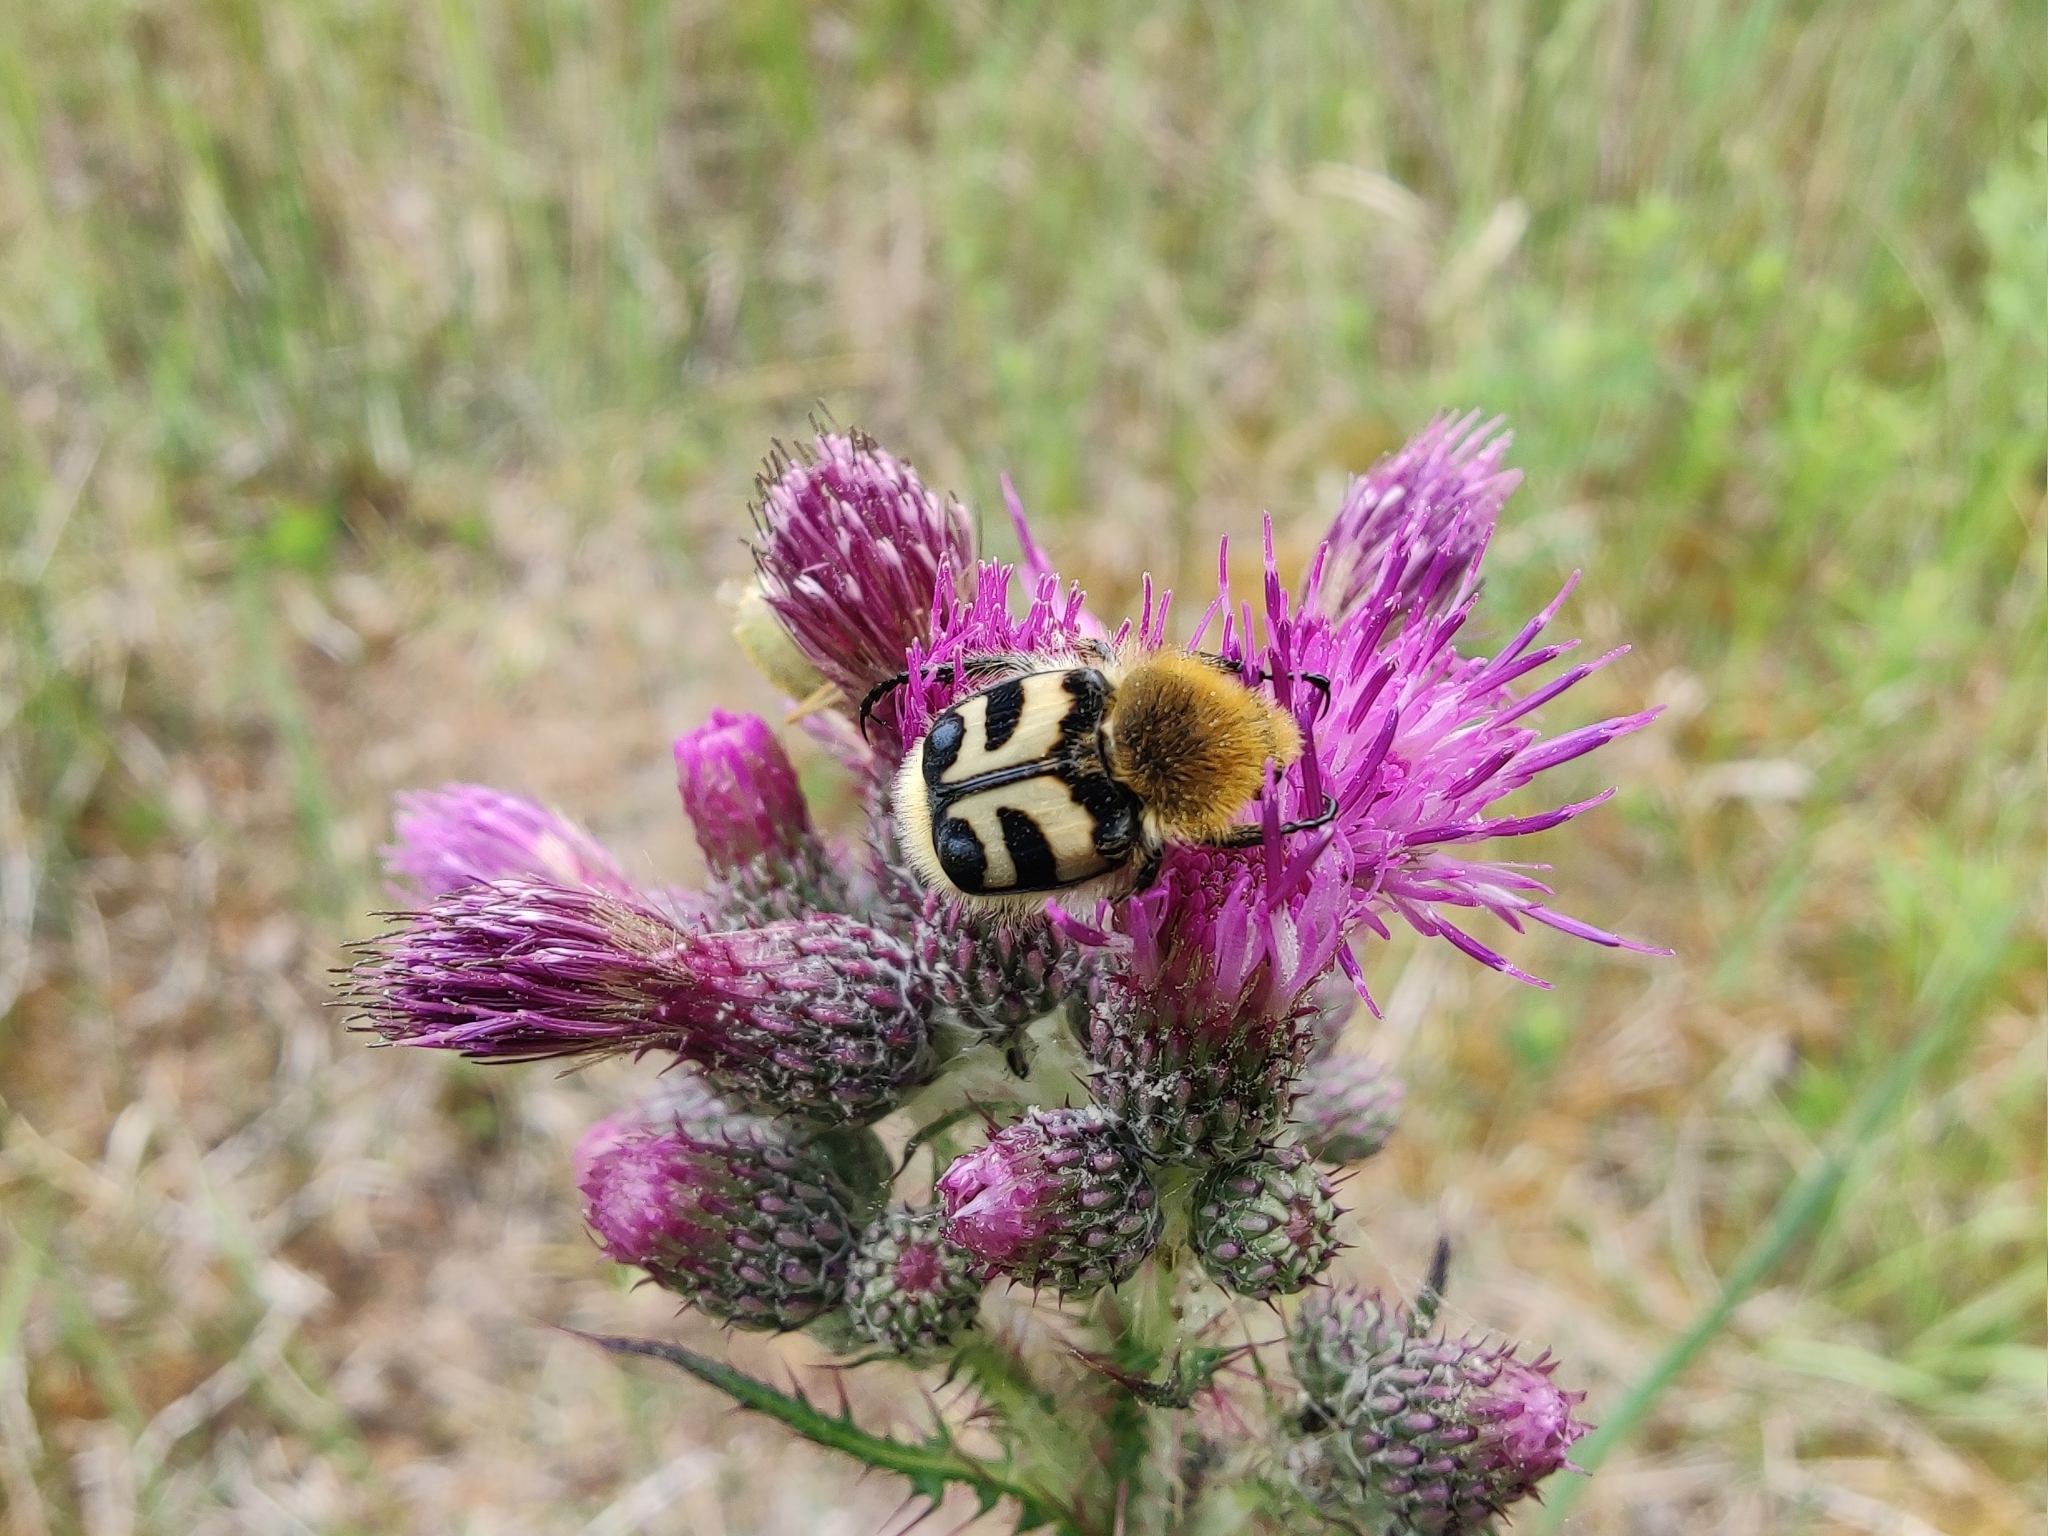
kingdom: Animalia
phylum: Arthropoda
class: Insecta
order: Coleoptera
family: Scarabaeidae
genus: Trichius
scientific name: Trichius fasciatus
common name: Bee beetle
